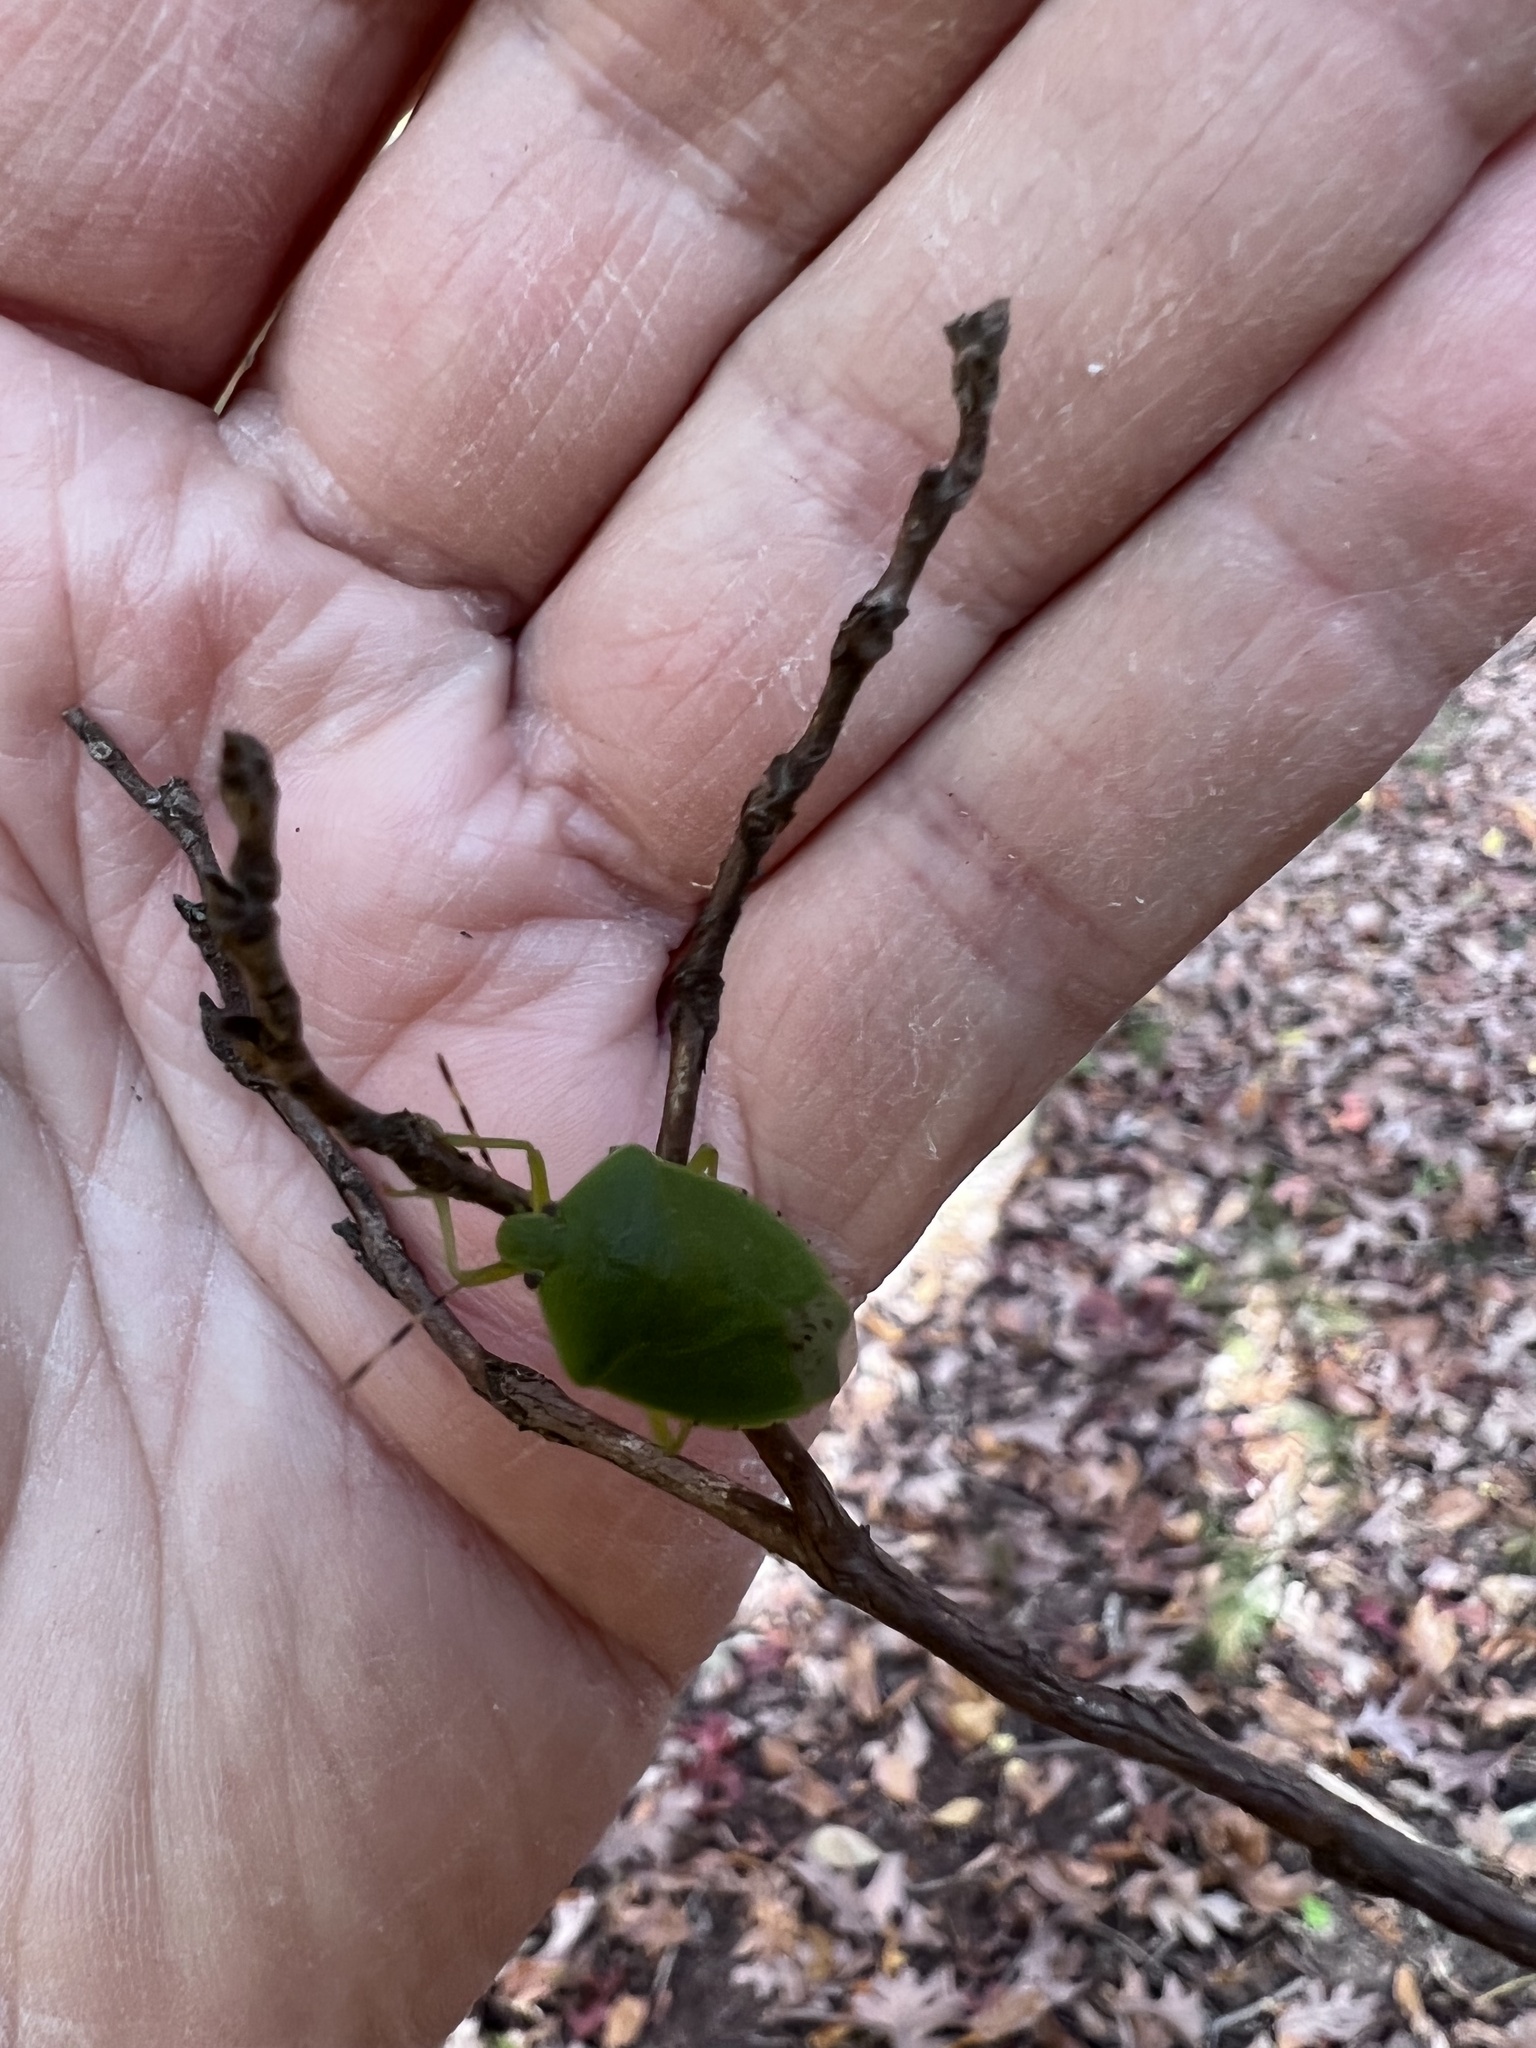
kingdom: Animalia
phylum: Arthropoda
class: Insecta
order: Hemiptera
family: Pentatomidae
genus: Chinavia
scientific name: Chinavia hilaris
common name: Green stink bug
